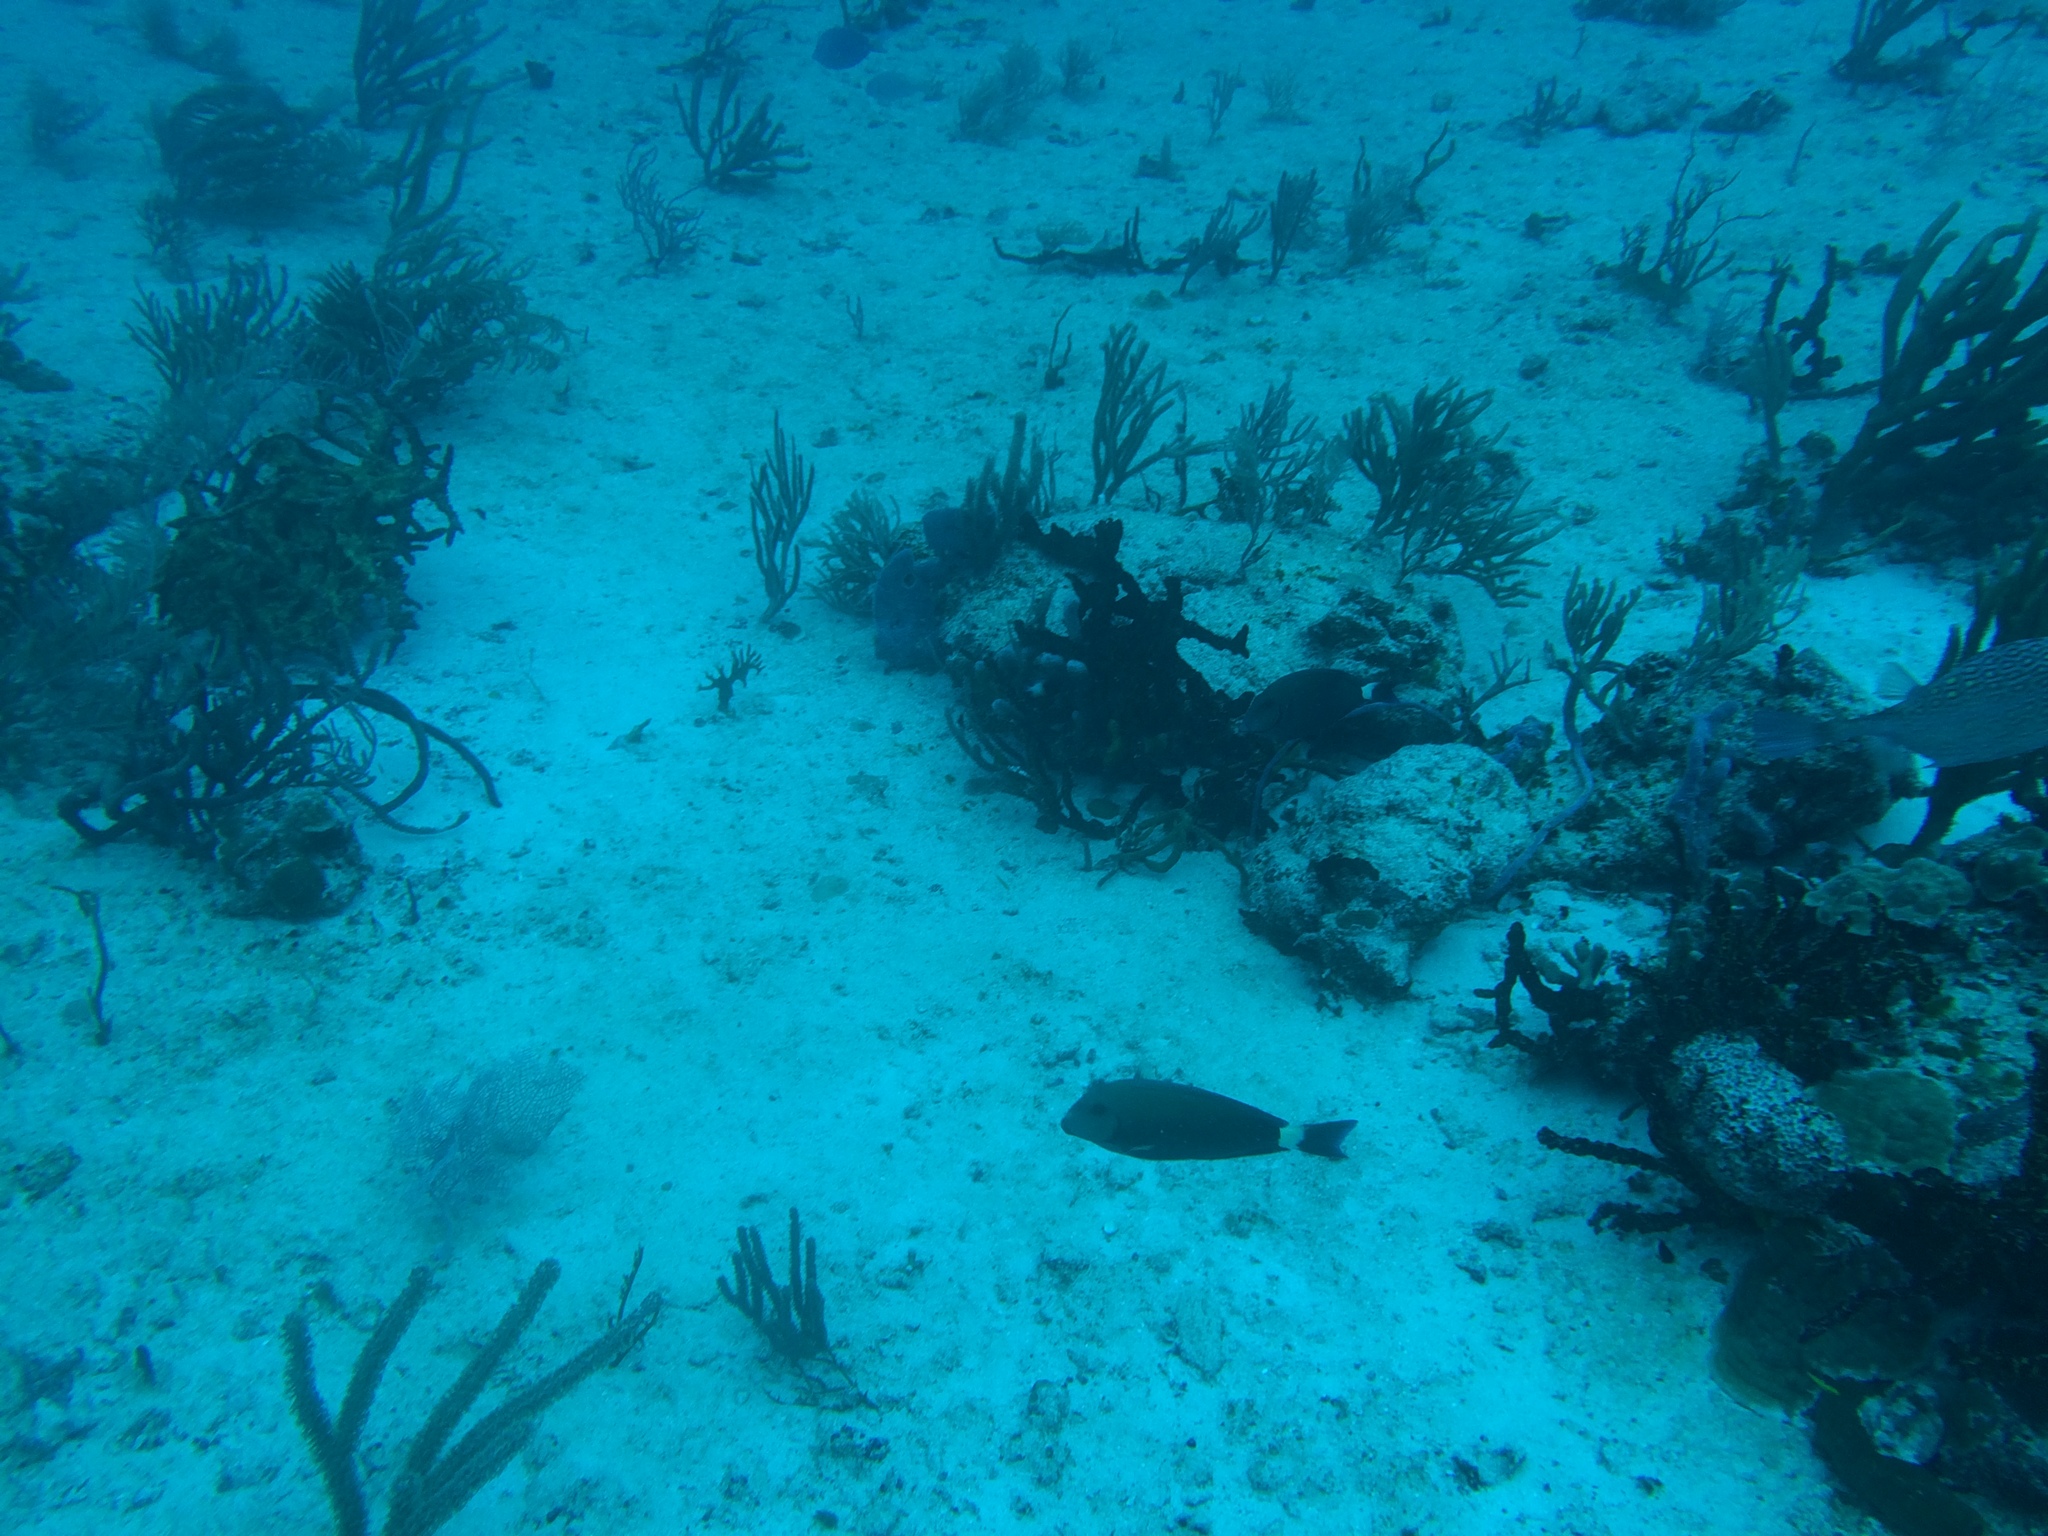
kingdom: Animalia
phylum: Chordata
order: Perciformes
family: Acanthuridae
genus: Acanthurus
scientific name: Acanthurus
